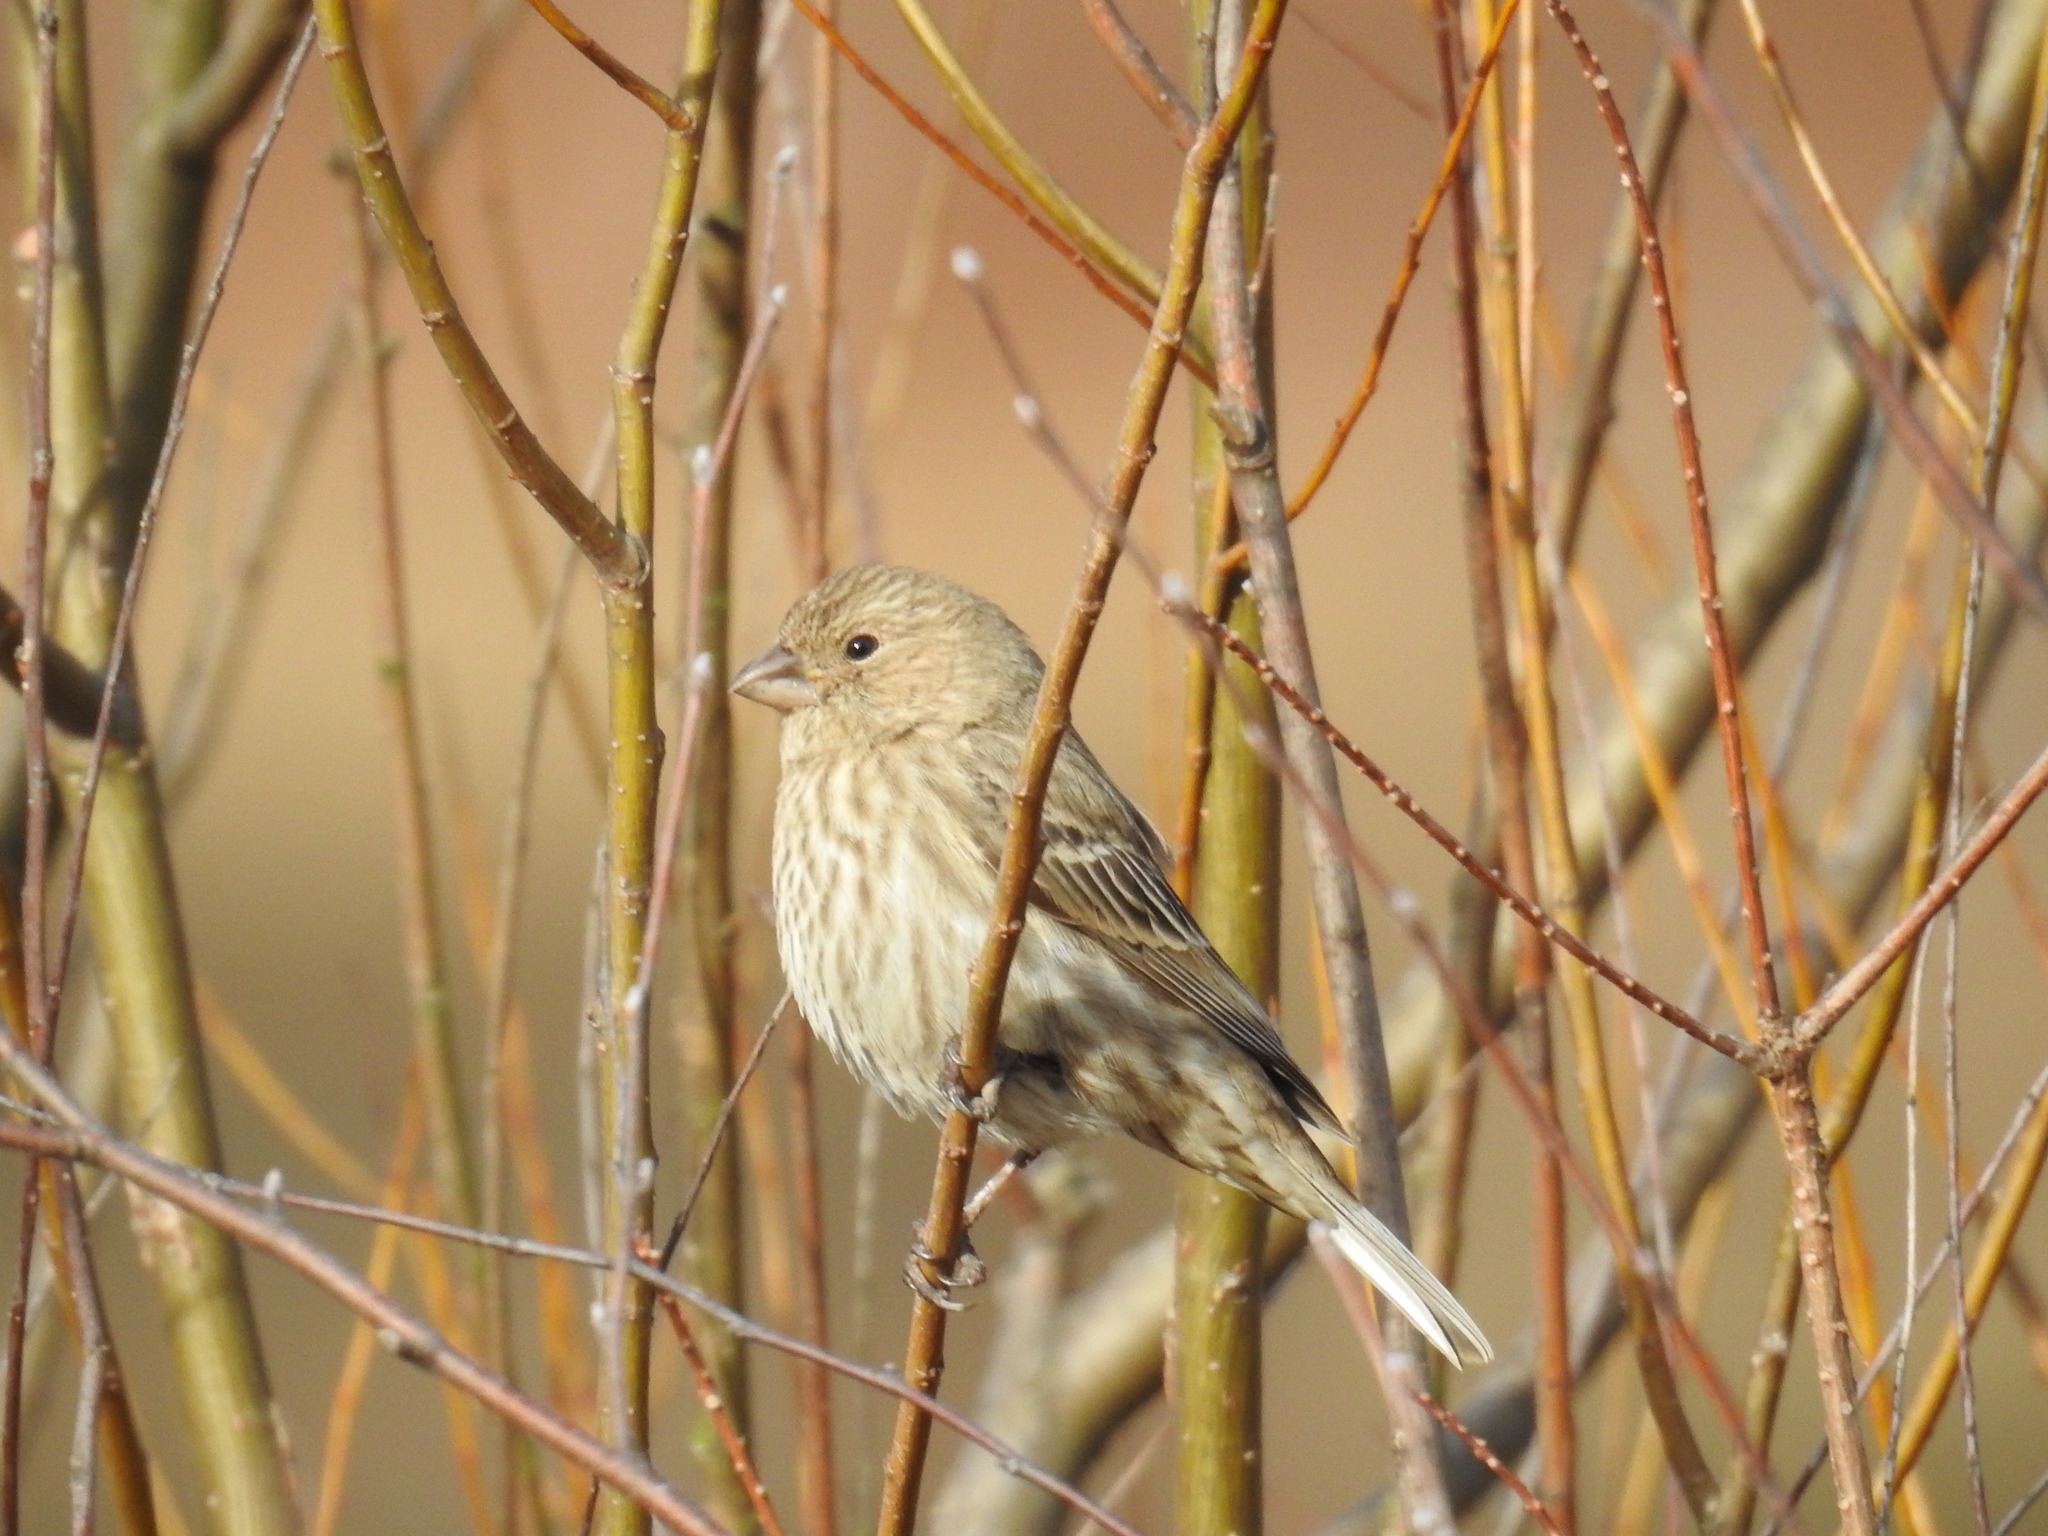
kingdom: Animalia
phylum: Chordata
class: Aves
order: Passeriformes
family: Fringillidae
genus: Haemorhous
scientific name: Haemorhous mexicanus
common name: House finch
